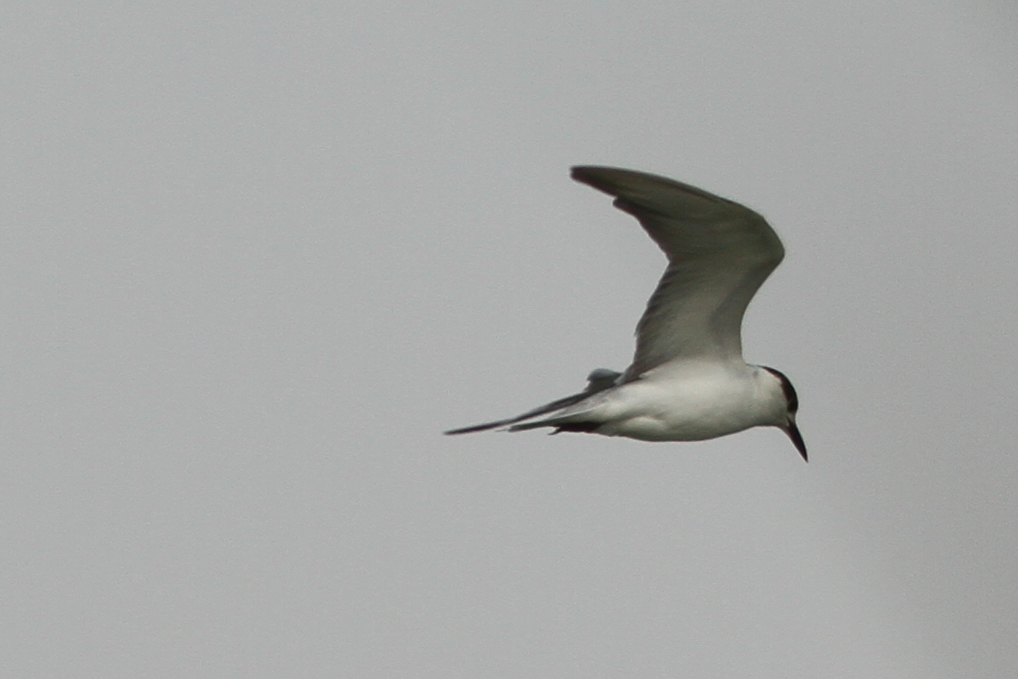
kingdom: Animalia
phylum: Chordata
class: Aves
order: Charadriiformes
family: Laridae
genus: Chlidonias
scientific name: Chlidonias hybrida
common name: Whiskered tern
